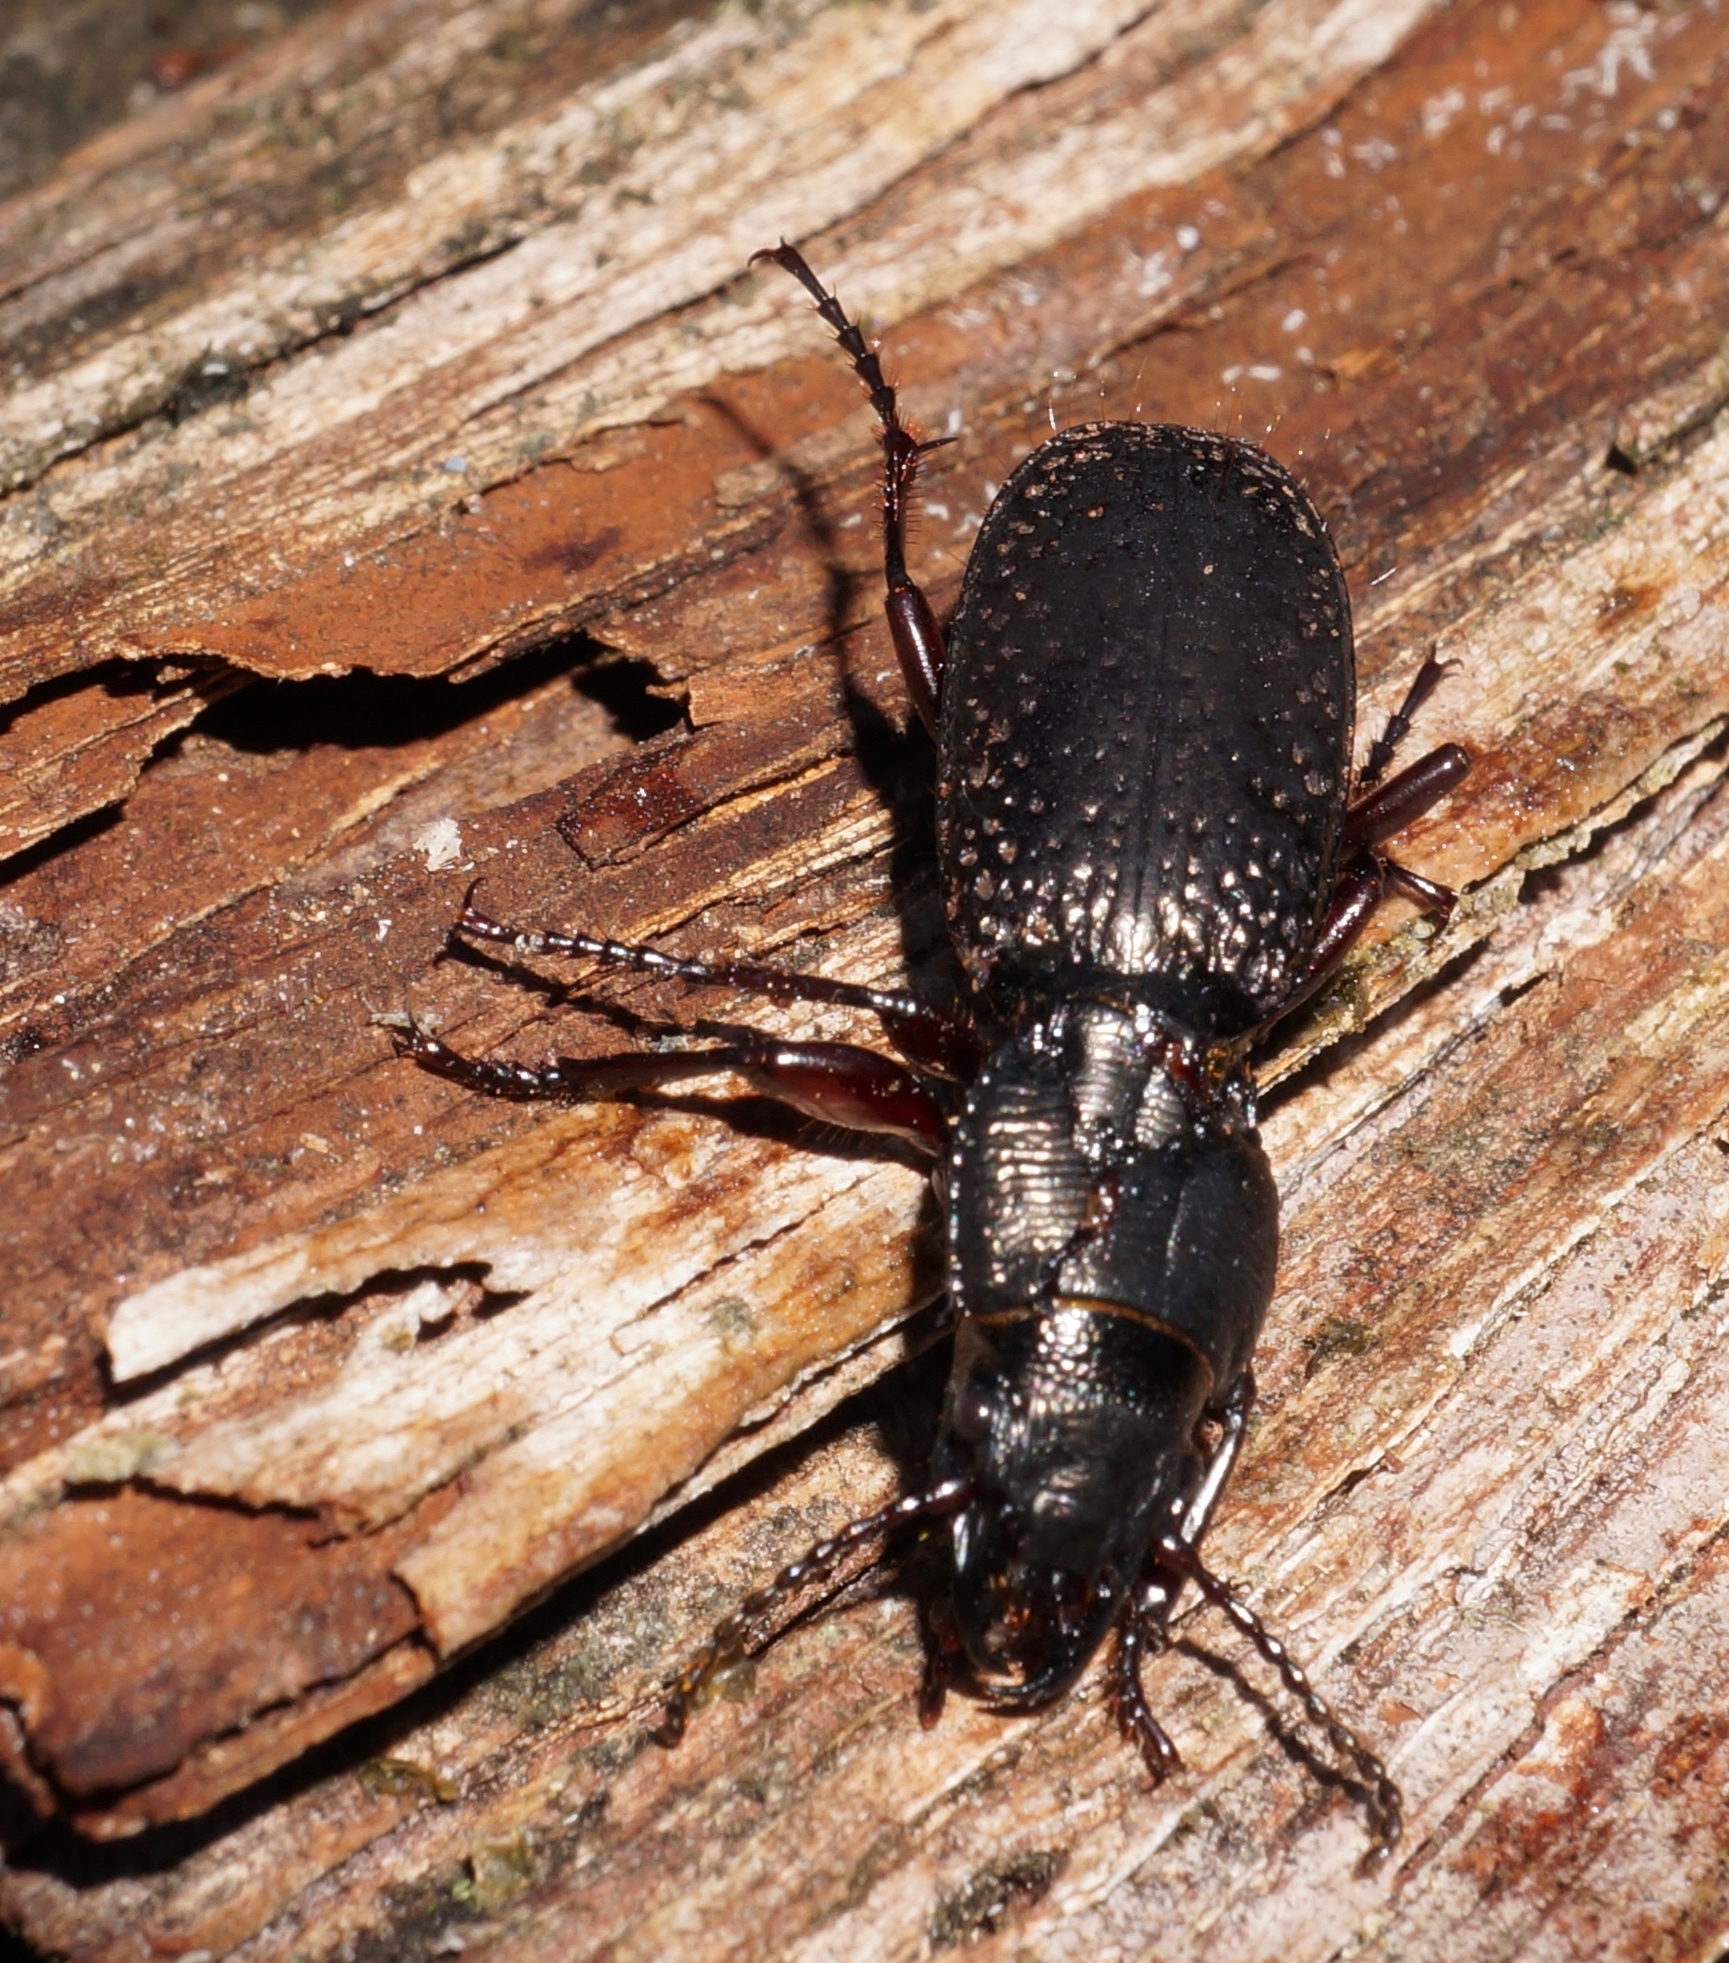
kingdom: Animalia
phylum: Arthropoda
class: Insecta
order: Coleoptera
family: Carabidae
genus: Mecodema
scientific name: Mecodema crenicolle
